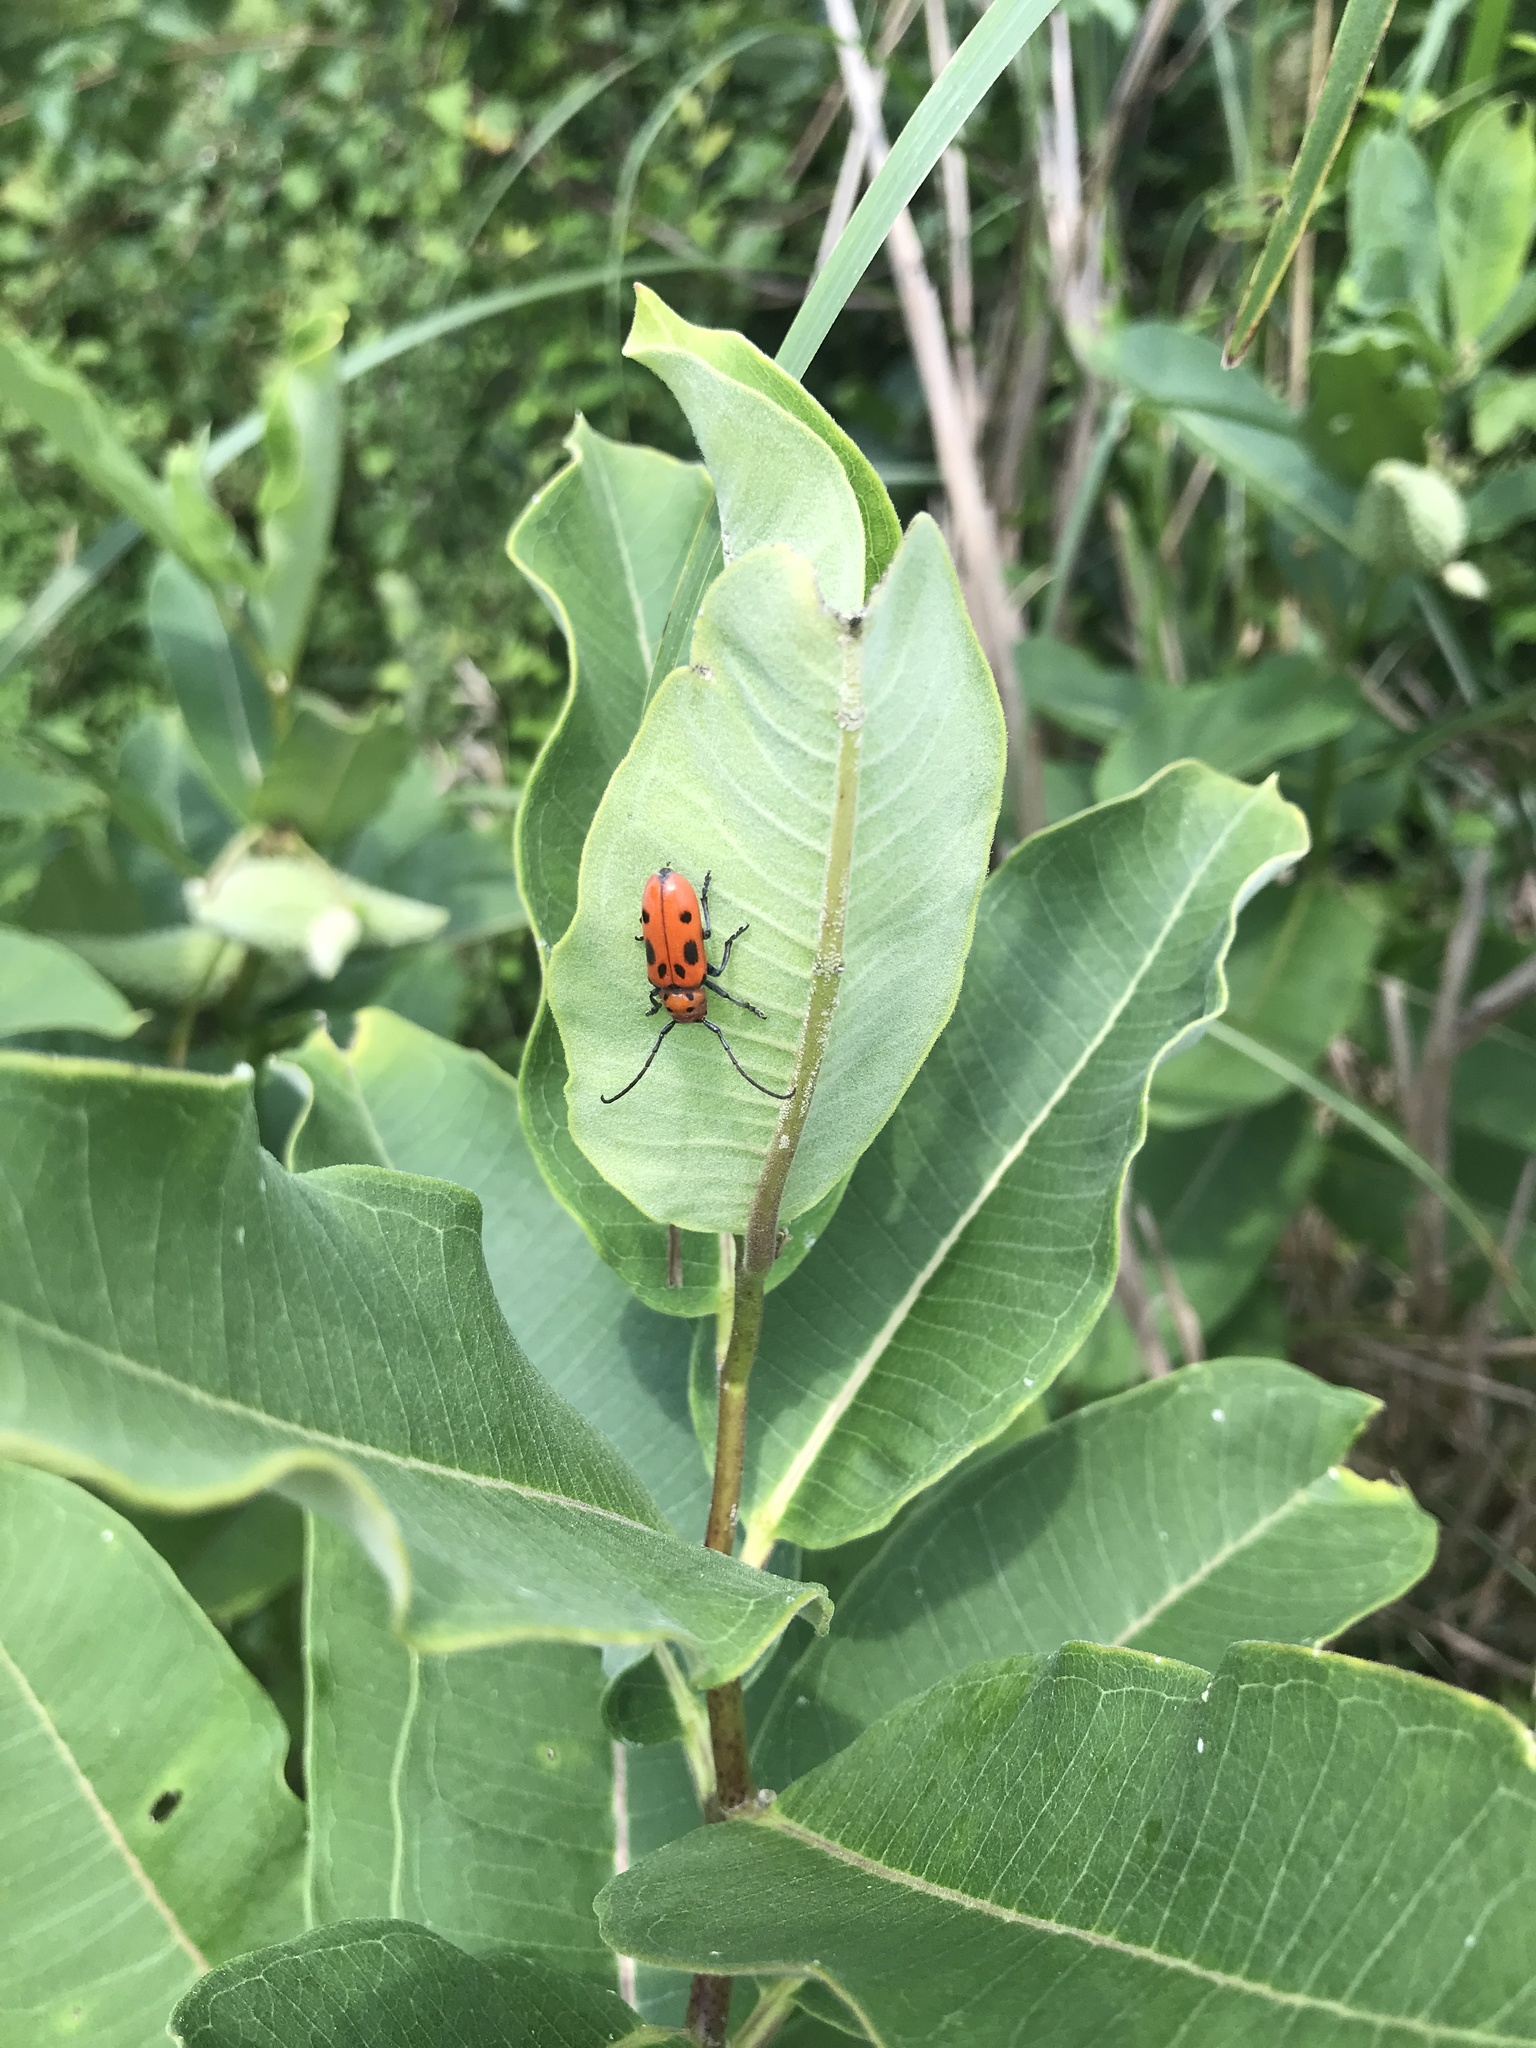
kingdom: Animalia
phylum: Arthropoda
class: Insecta
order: Coleoptera
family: Cerambycidae
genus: Tetraopes
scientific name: Tetraopes tetrophthalmus
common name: Red milkweed beetle
